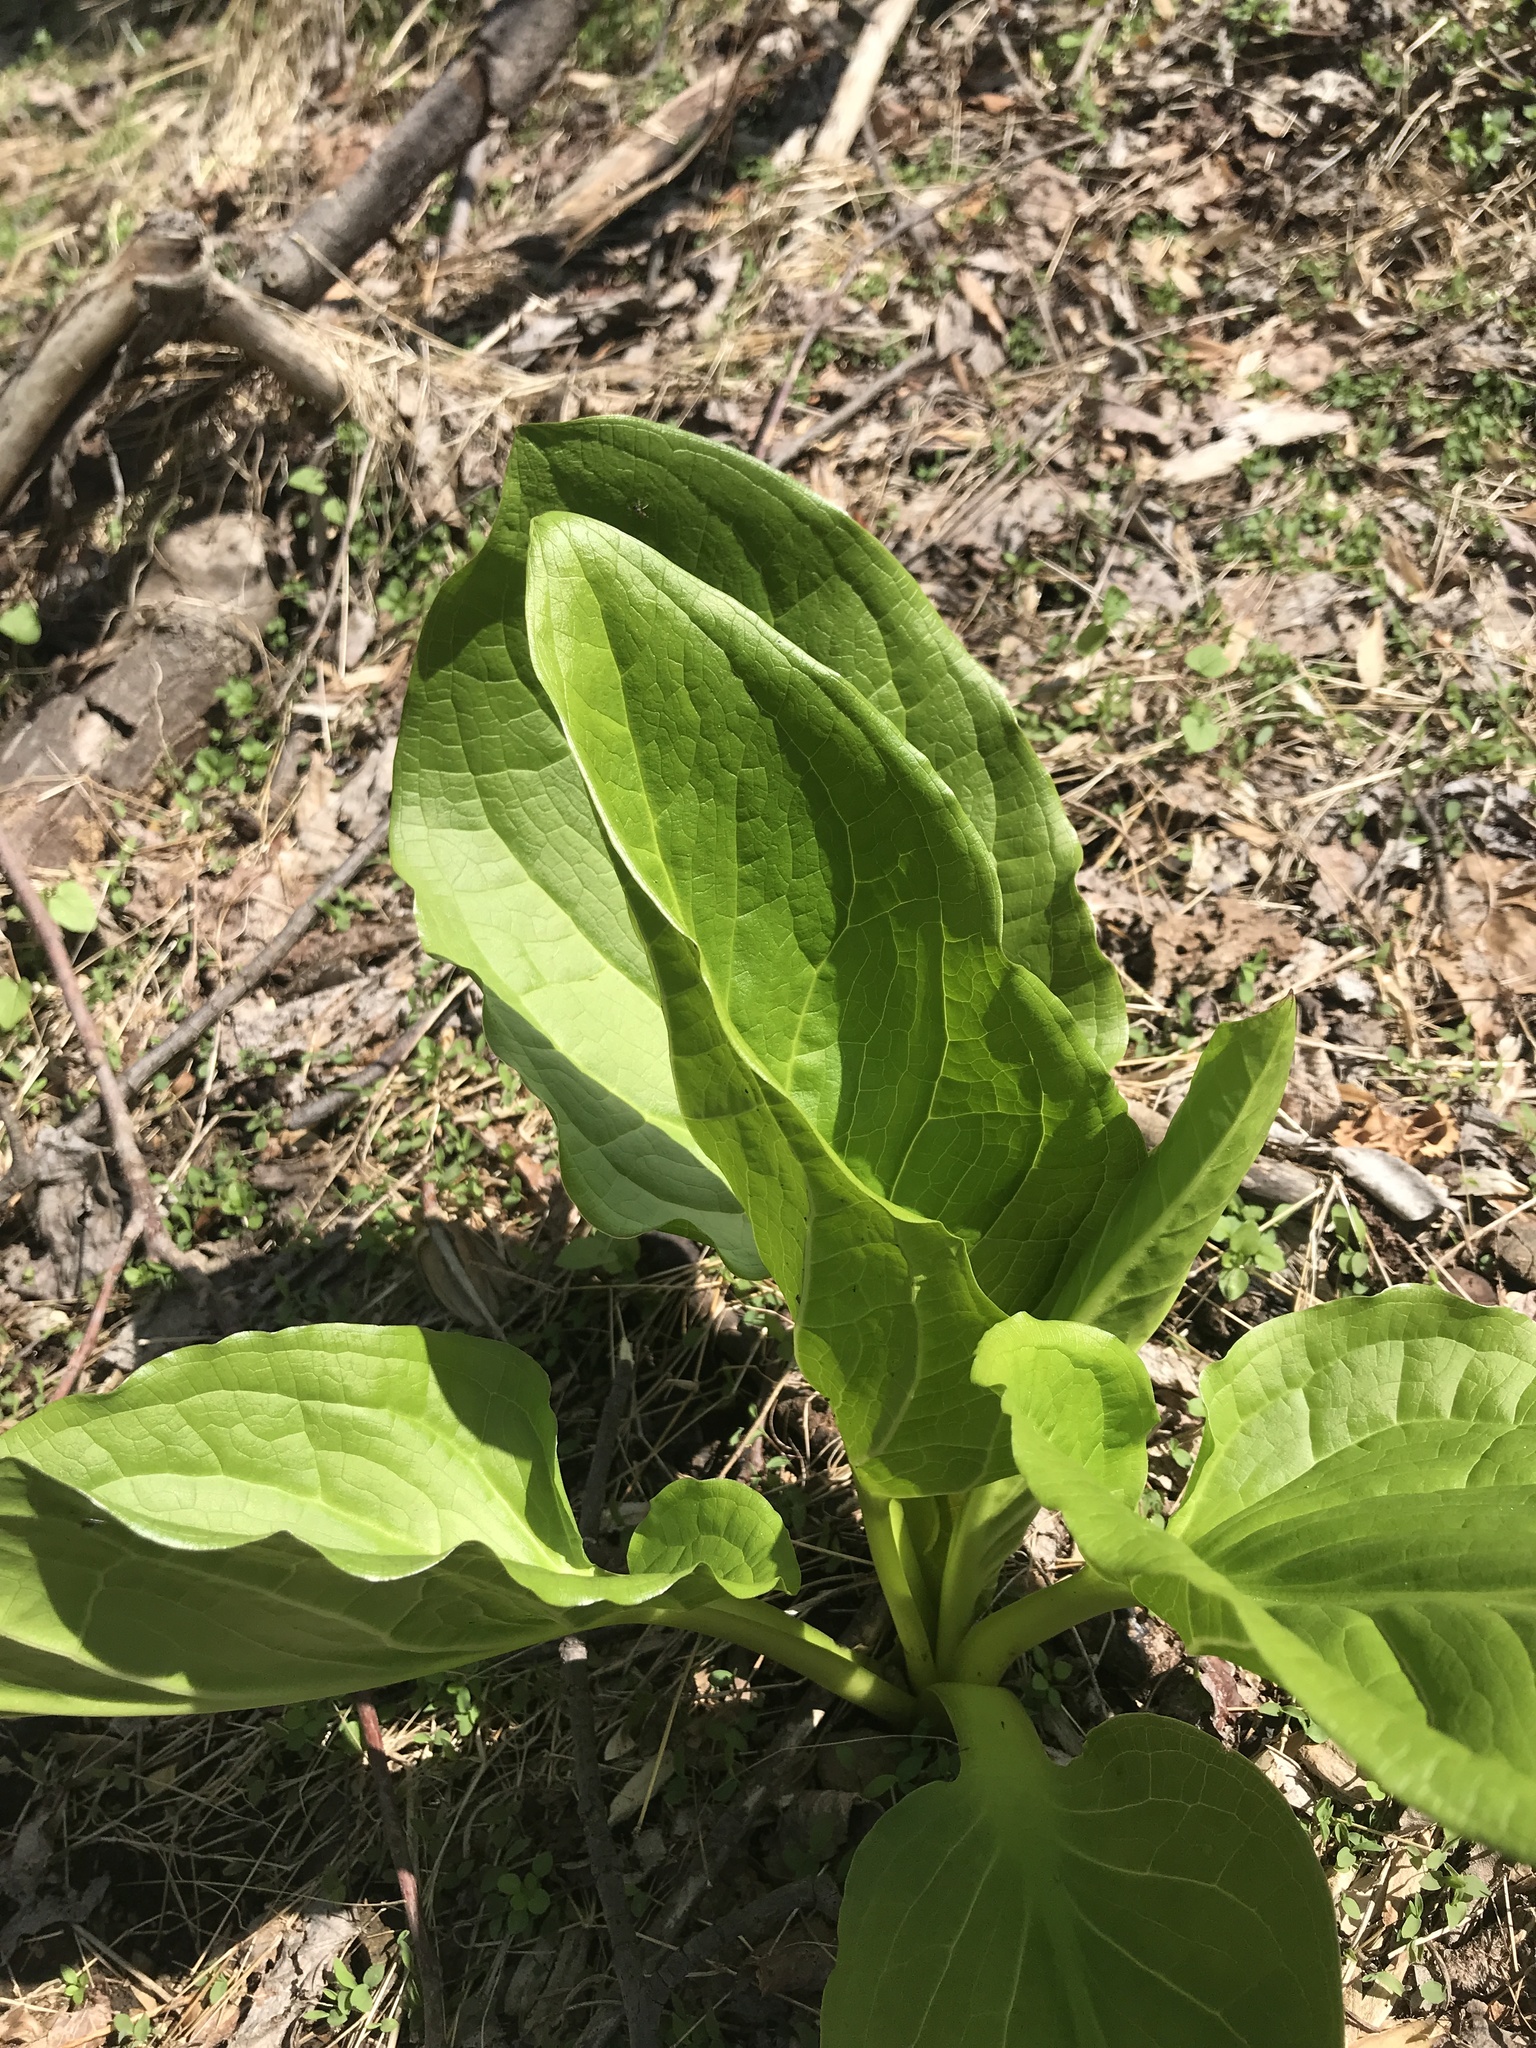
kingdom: Plantae
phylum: Tracheophyta
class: Liliopsida
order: Alismatales
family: Araceae
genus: Symplocarpus
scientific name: Symplocarpus foetidus
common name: Eastern skunk cabbage
